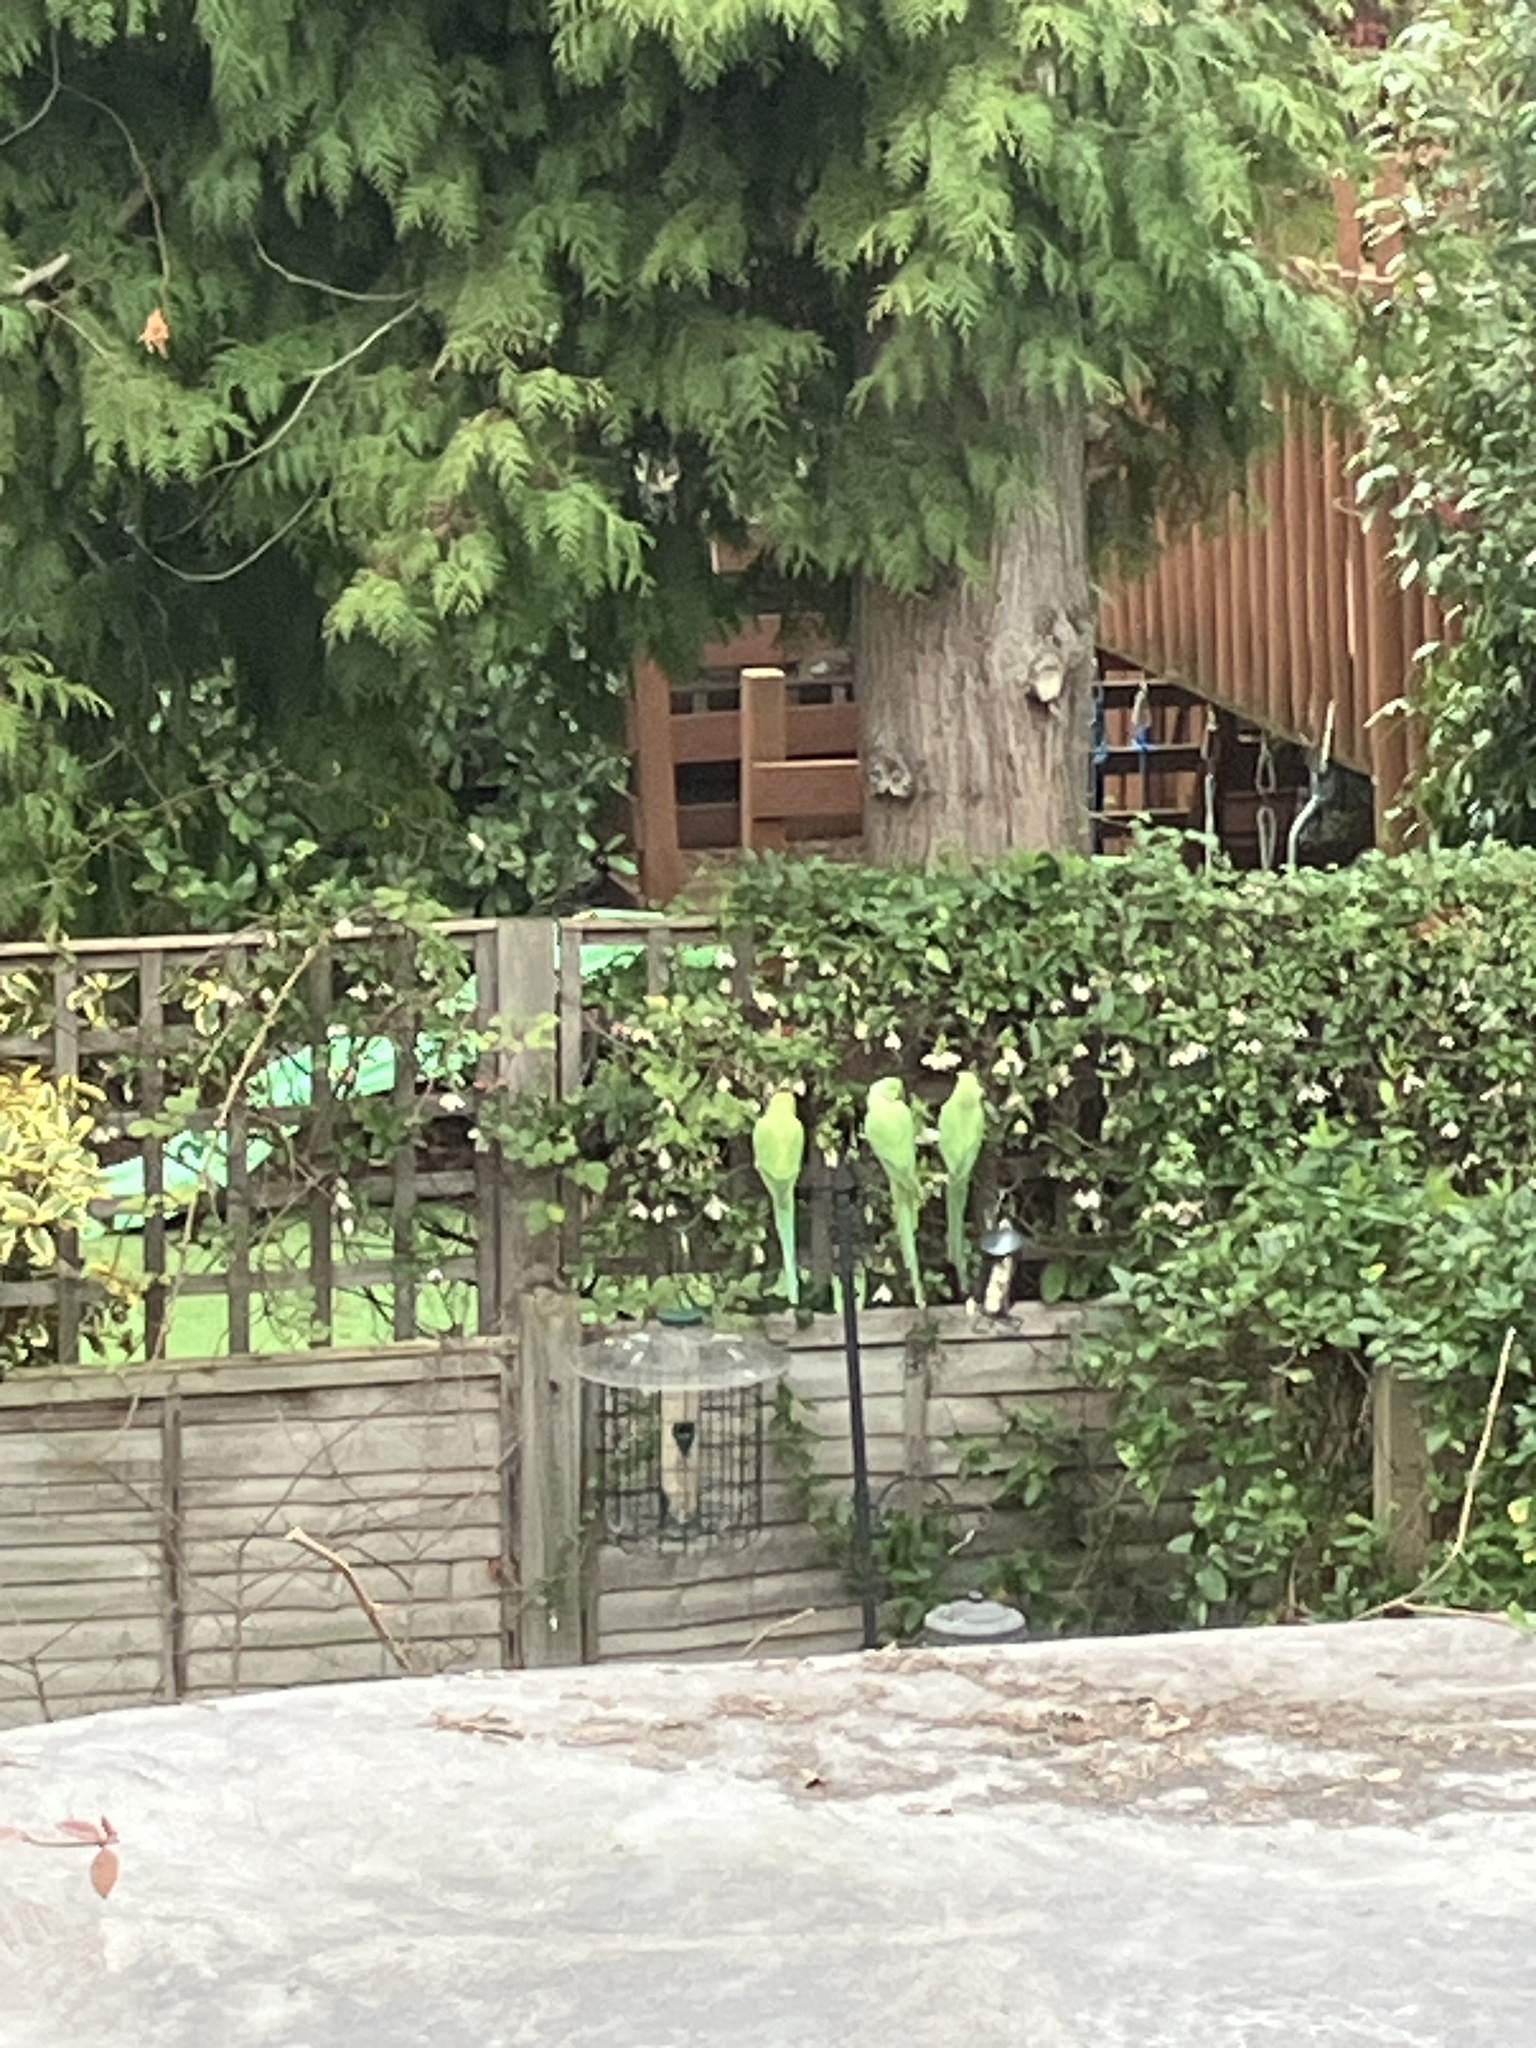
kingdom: Animalia
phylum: Chordata
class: Aves
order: Psittaciformes
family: Psittacidae
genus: Psittacula
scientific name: Psittacula krameri
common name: Rose-ringed parakeet
